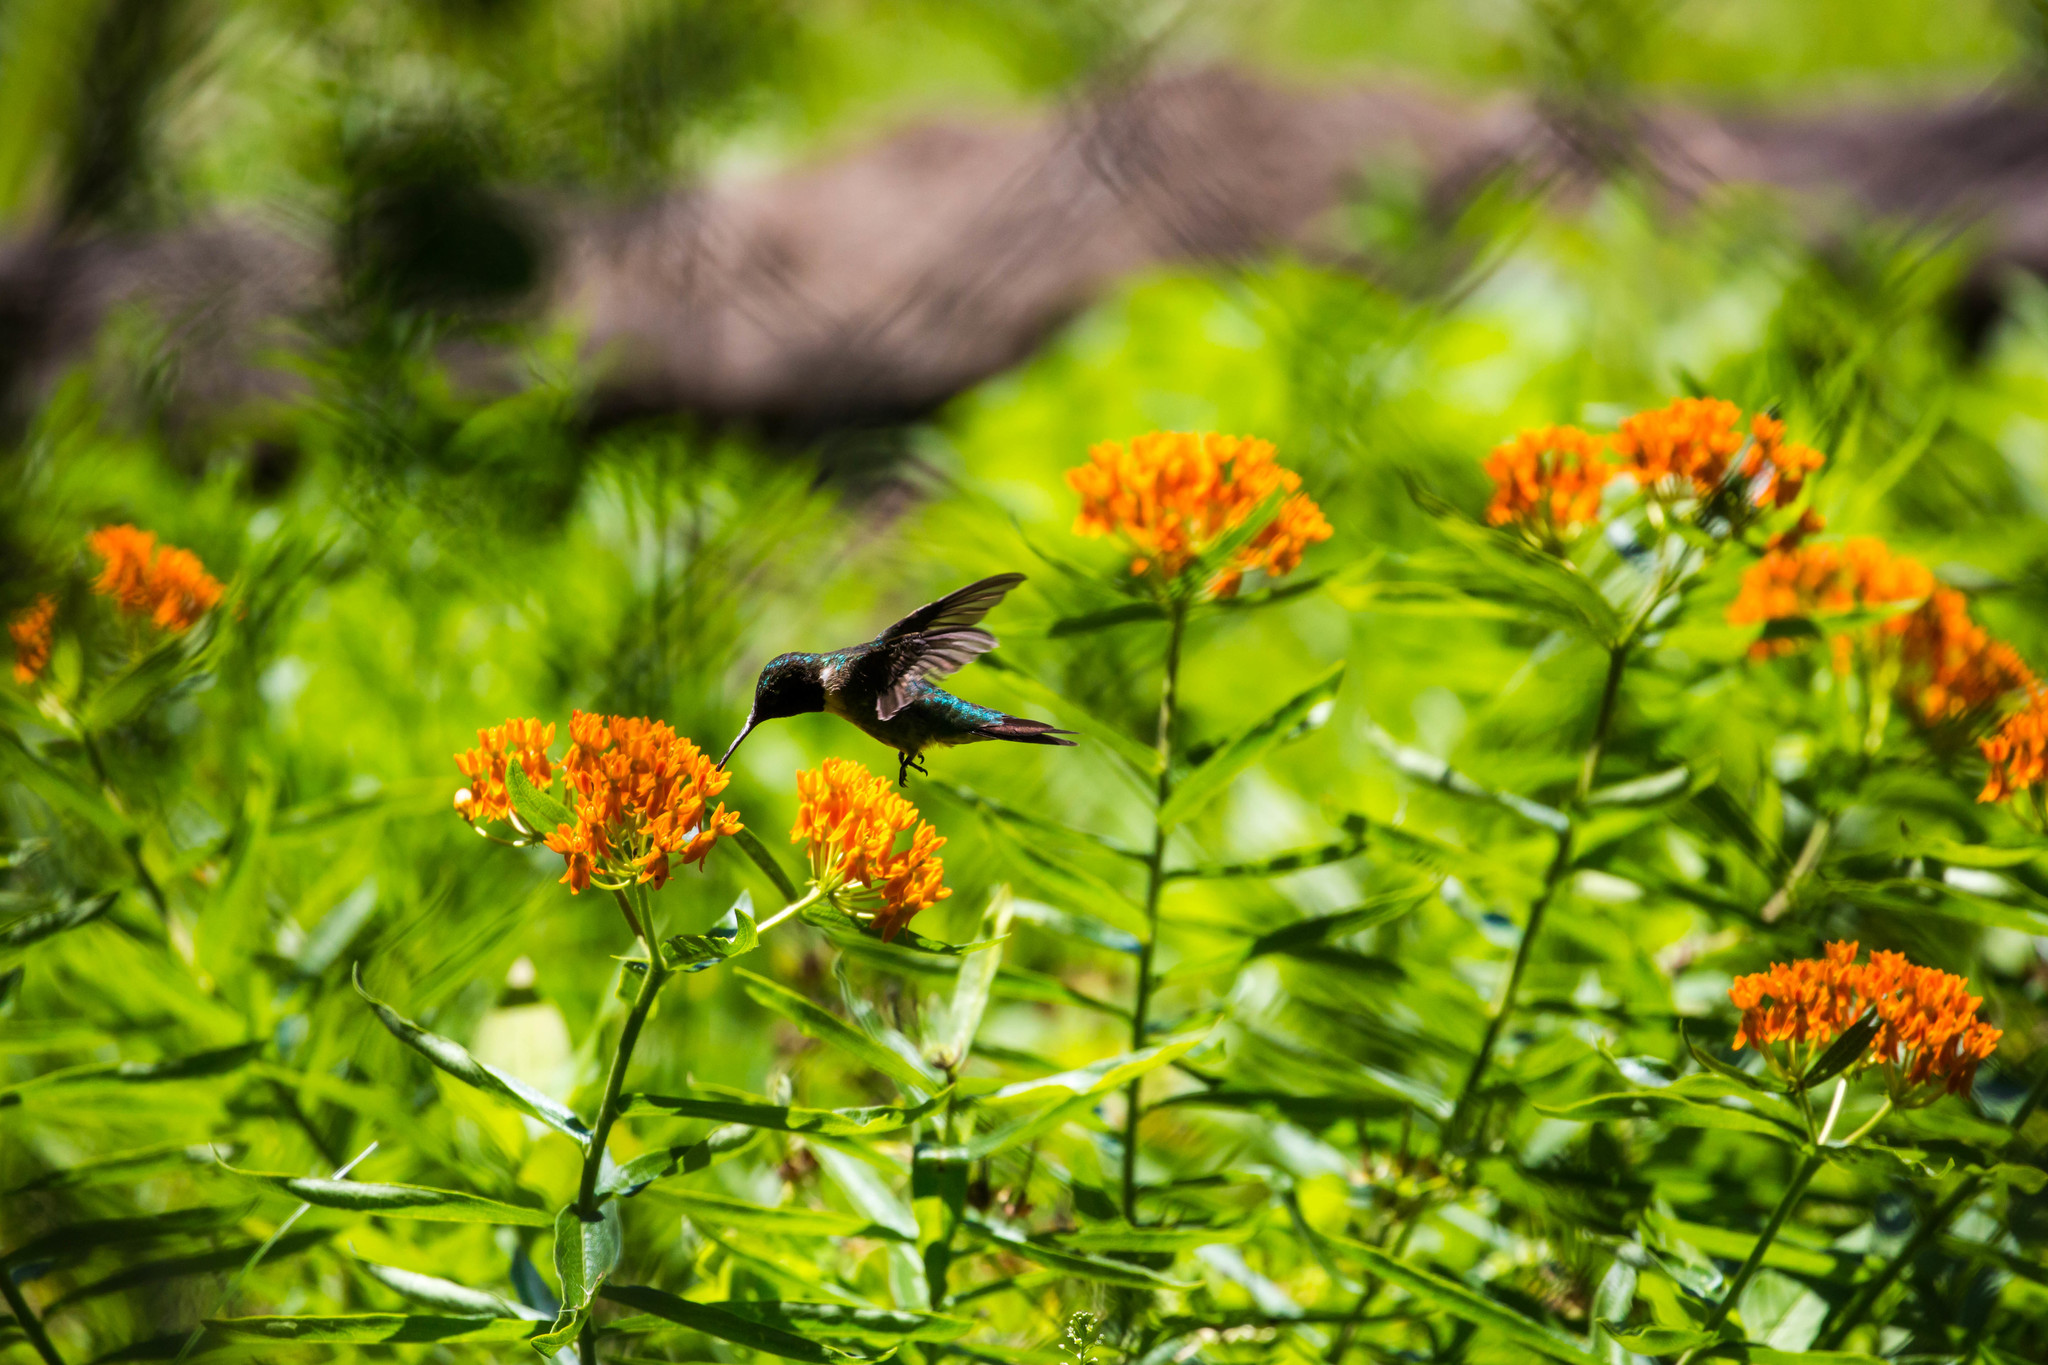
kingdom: Animalia
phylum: Chordata
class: Aves
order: Apodiformes
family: Trochilidae
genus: Archilochus
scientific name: Archilochus colubris
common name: Ruby-throated hummingbird
